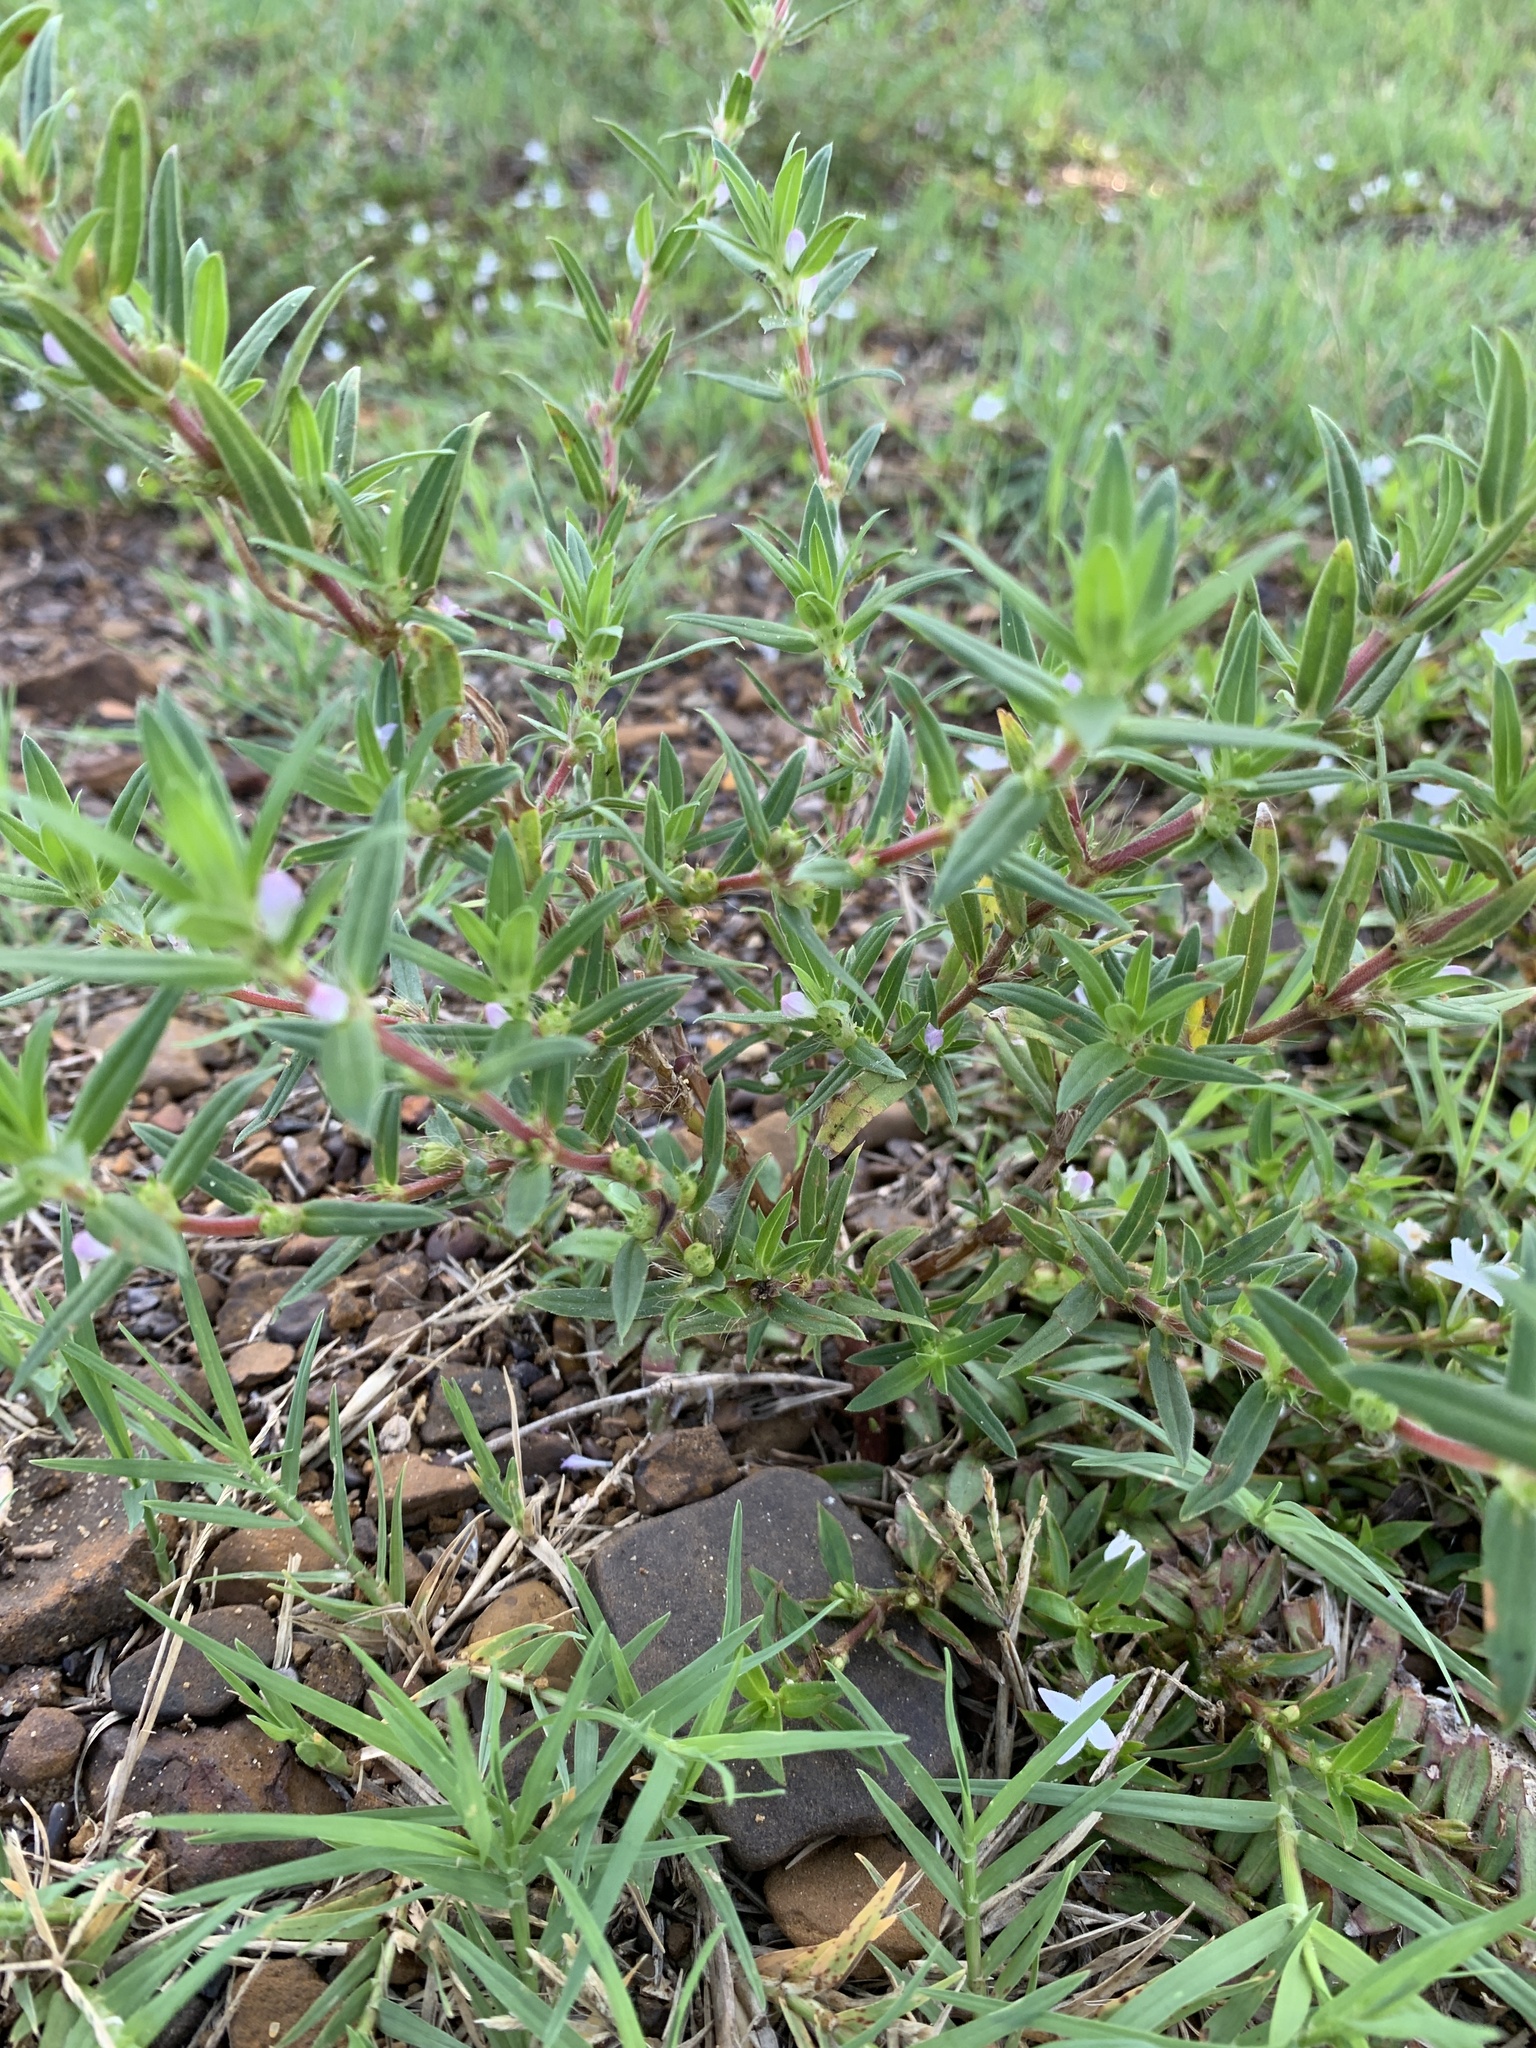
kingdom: Plantae
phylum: Tracheophyta
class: Magnoliopsida
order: Gentianales
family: Rubiaceae
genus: Hexasepalum
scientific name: Hexasepalum teres
